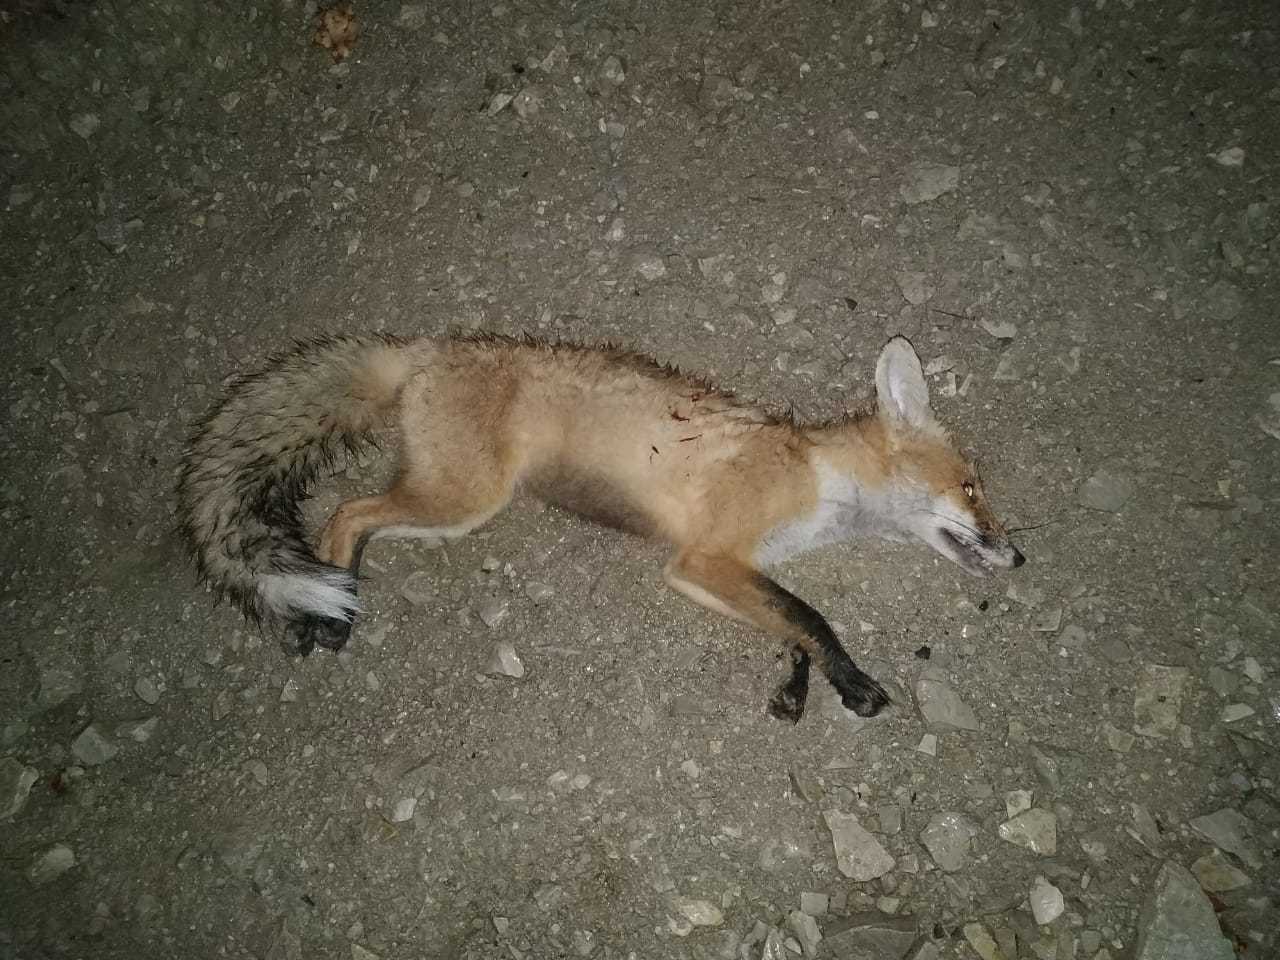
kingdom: Animalia
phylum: Chordata
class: Mammalia
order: Carnivora
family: Canidae
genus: Vulpes
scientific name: Vulpes vulpes
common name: Red fox
